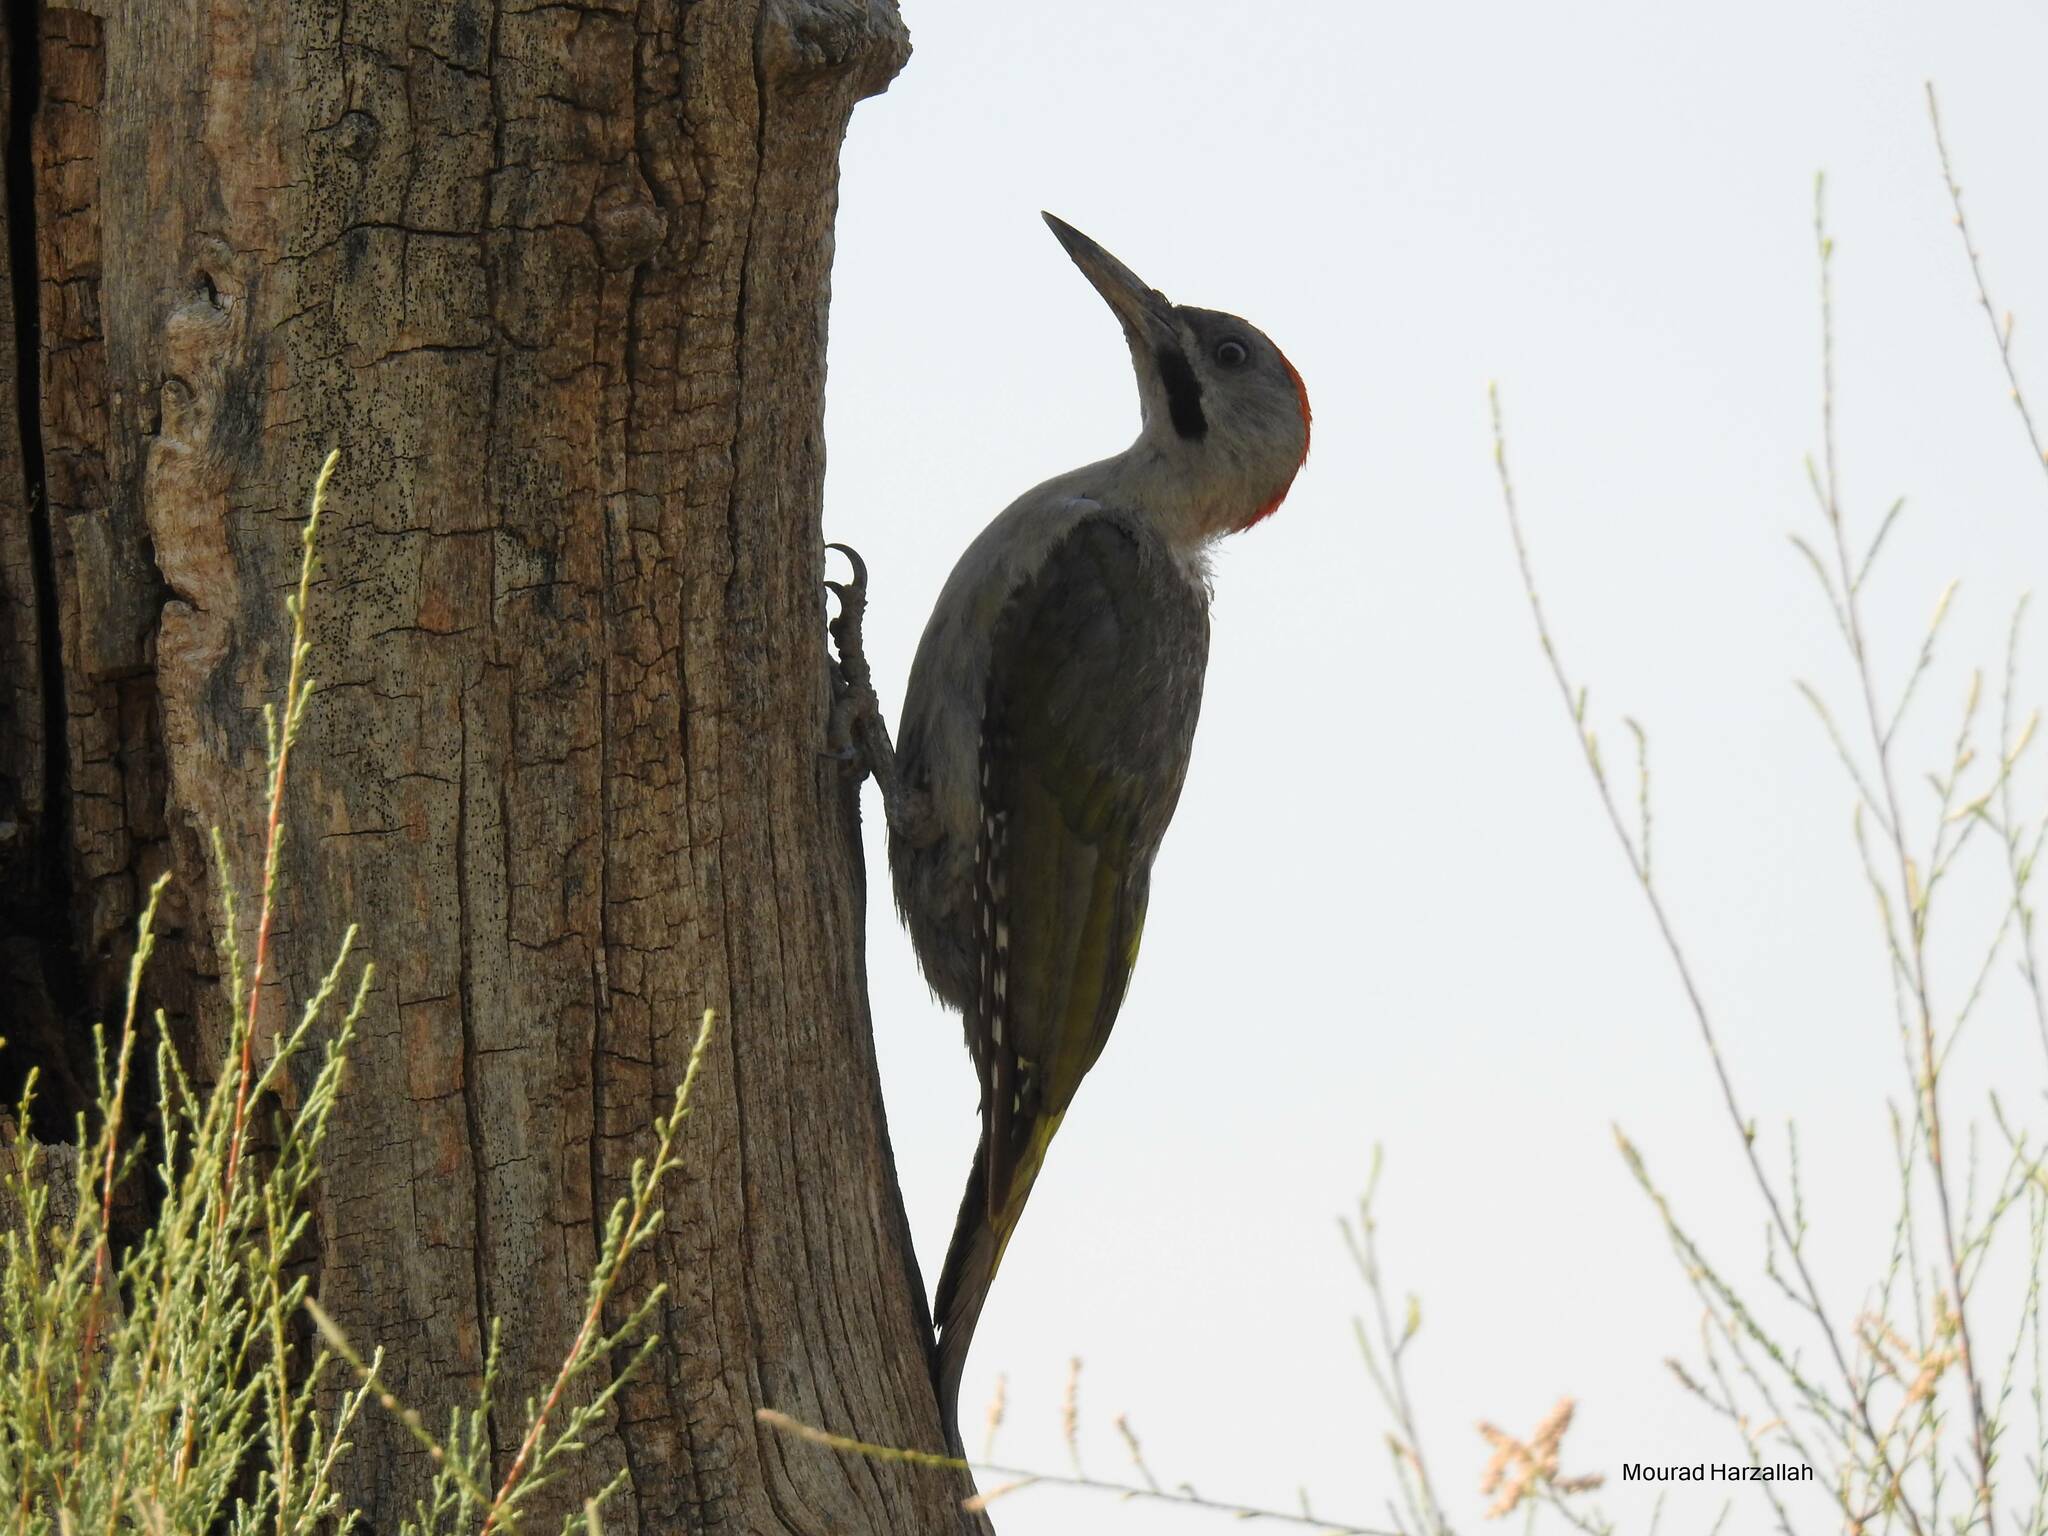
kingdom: Animalia
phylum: Chordata
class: Aves
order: Piciformes
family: Picidae
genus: Picus
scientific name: Picus vaillantii
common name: Levaillant's woodpecker
